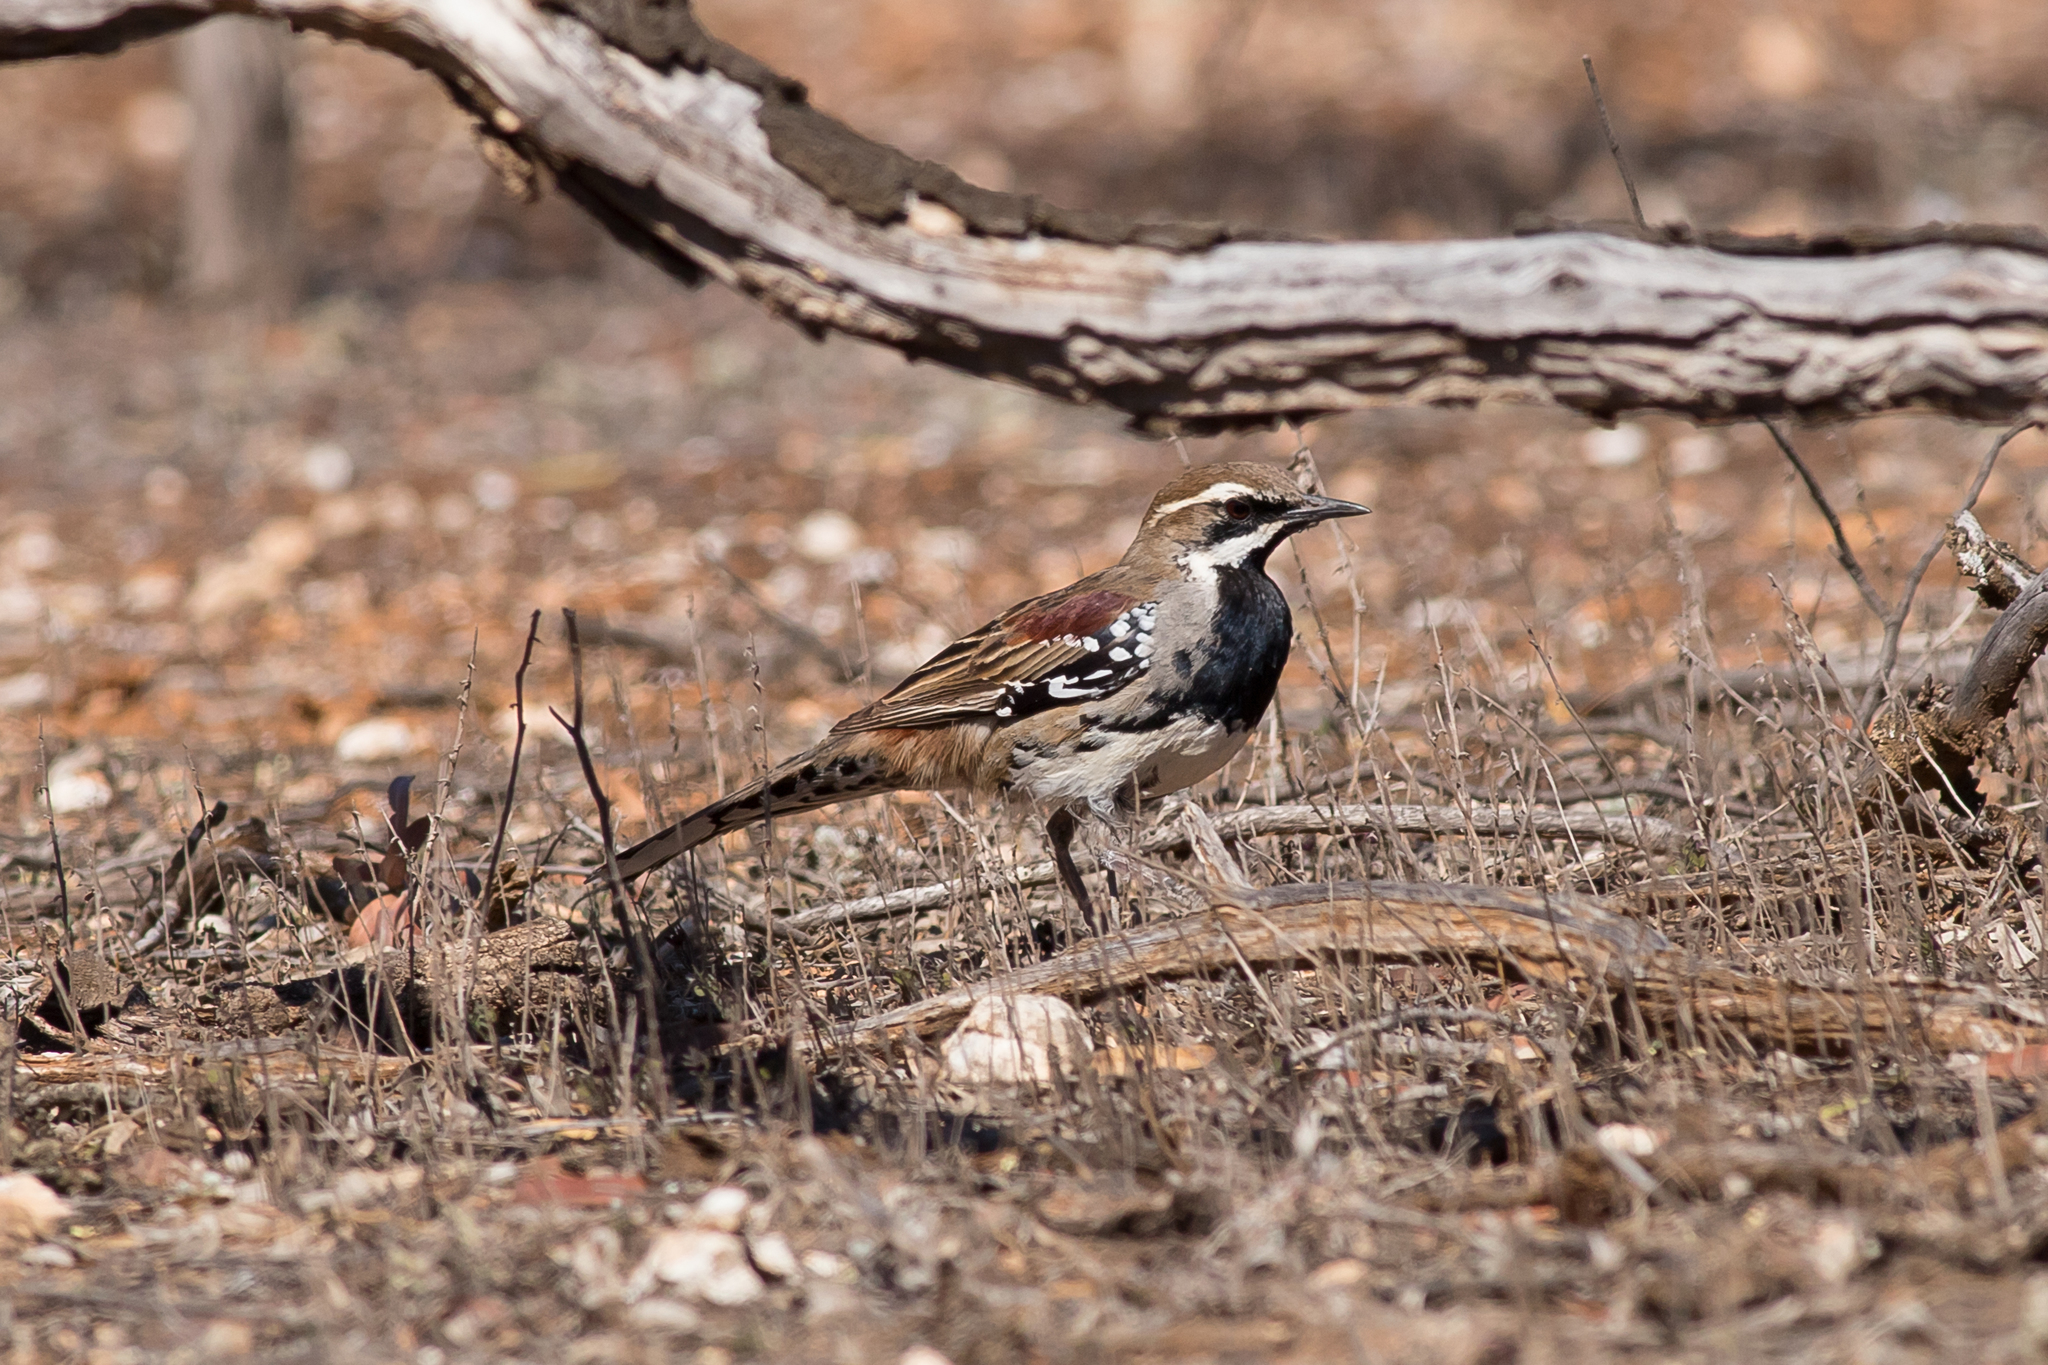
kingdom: Animalia
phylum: Chordata
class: Aves
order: Passeriformes
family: Psophodidae
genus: Cinclosoma
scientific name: Cinclosoma castanotum
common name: Chestnut quail-thrush
